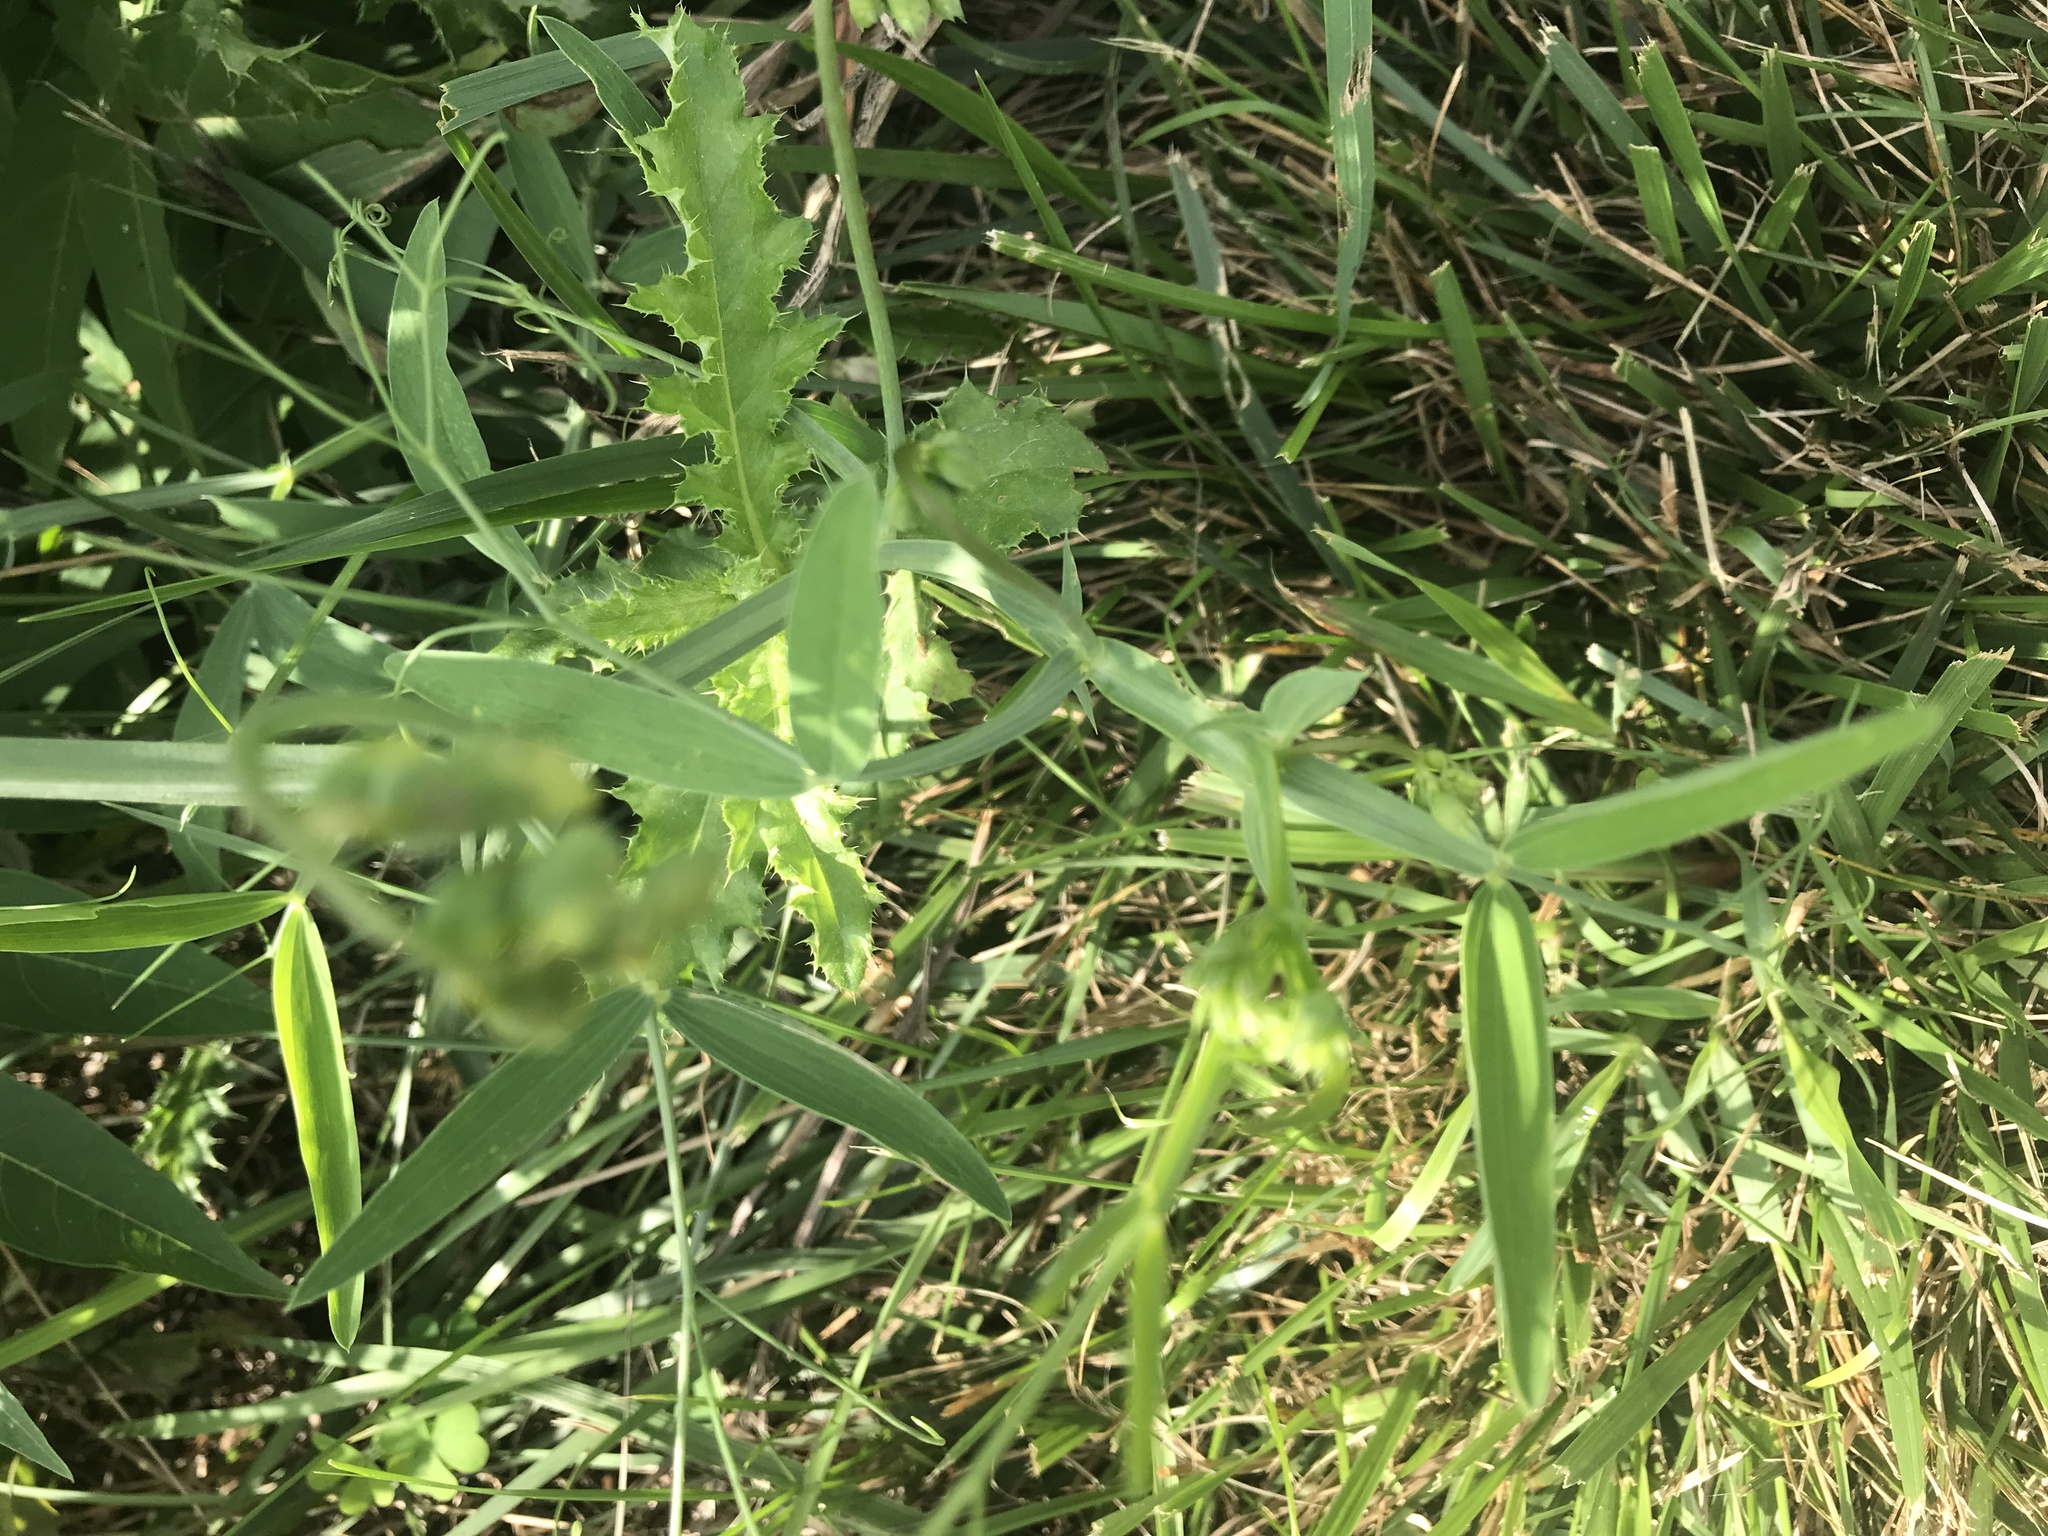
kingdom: Plantae
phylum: Tracheophyta
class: Magnoliopsida
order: Fabales
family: Fabaceae
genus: Lathyrus
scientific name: Lathyrus latifolius
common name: Perennial pea
